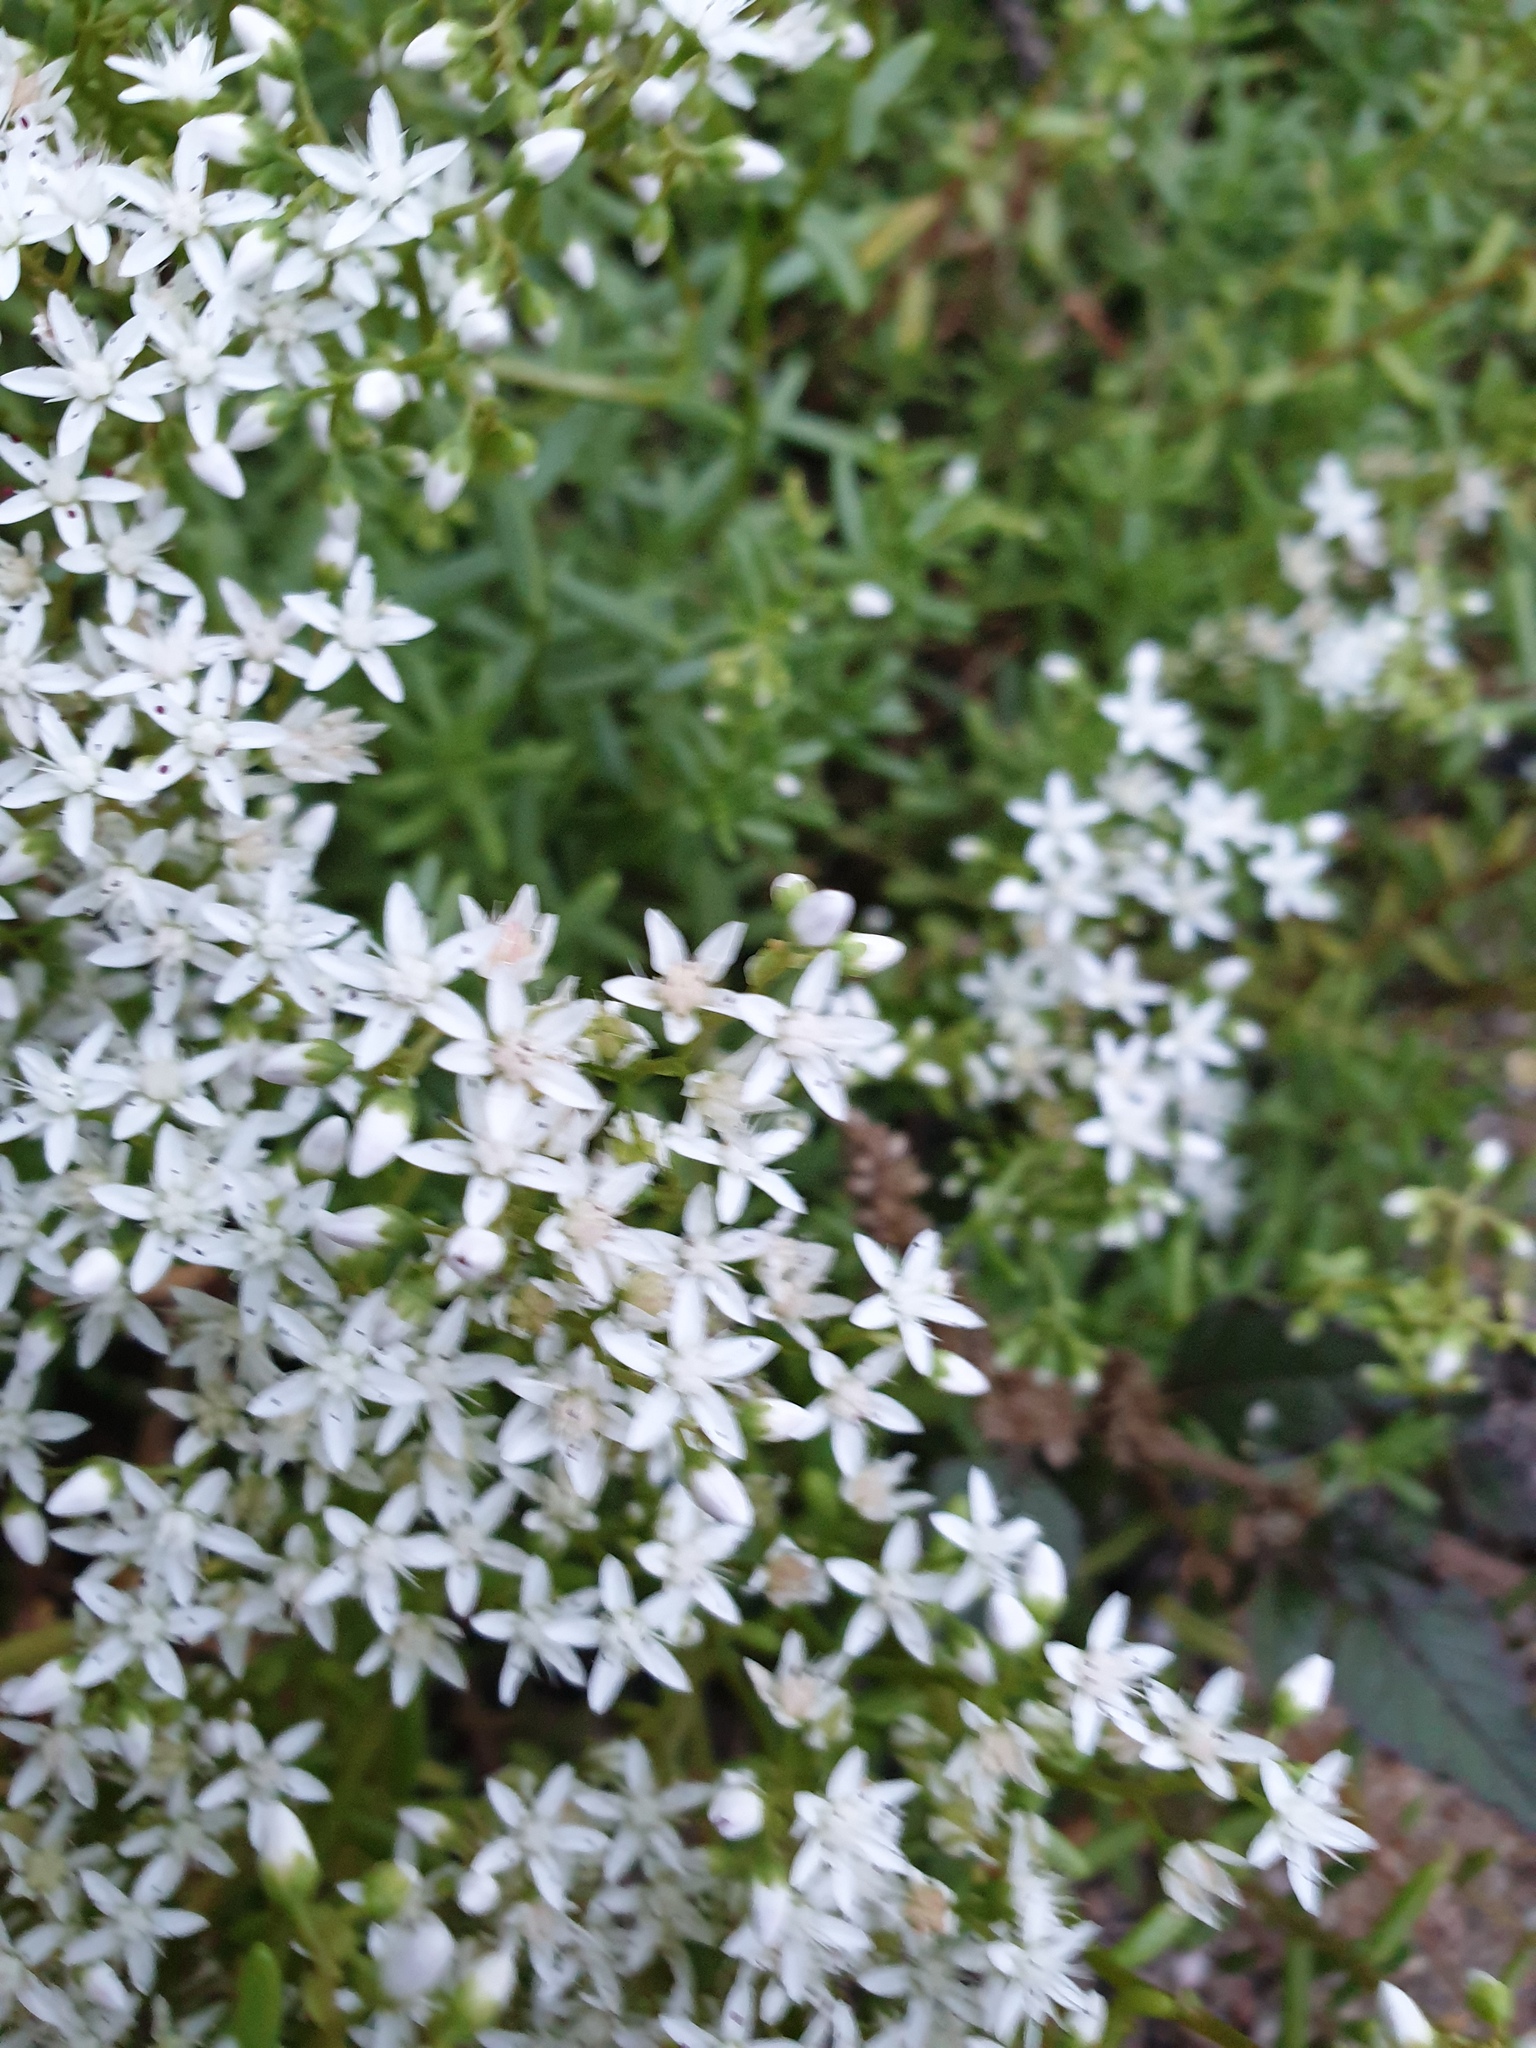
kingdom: Plantae
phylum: Tracheophyta
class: Magnoliopsida
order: Saxifragales
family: Crassulaceae
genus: Sedum
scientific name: Sedum album
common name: White stonecrop
